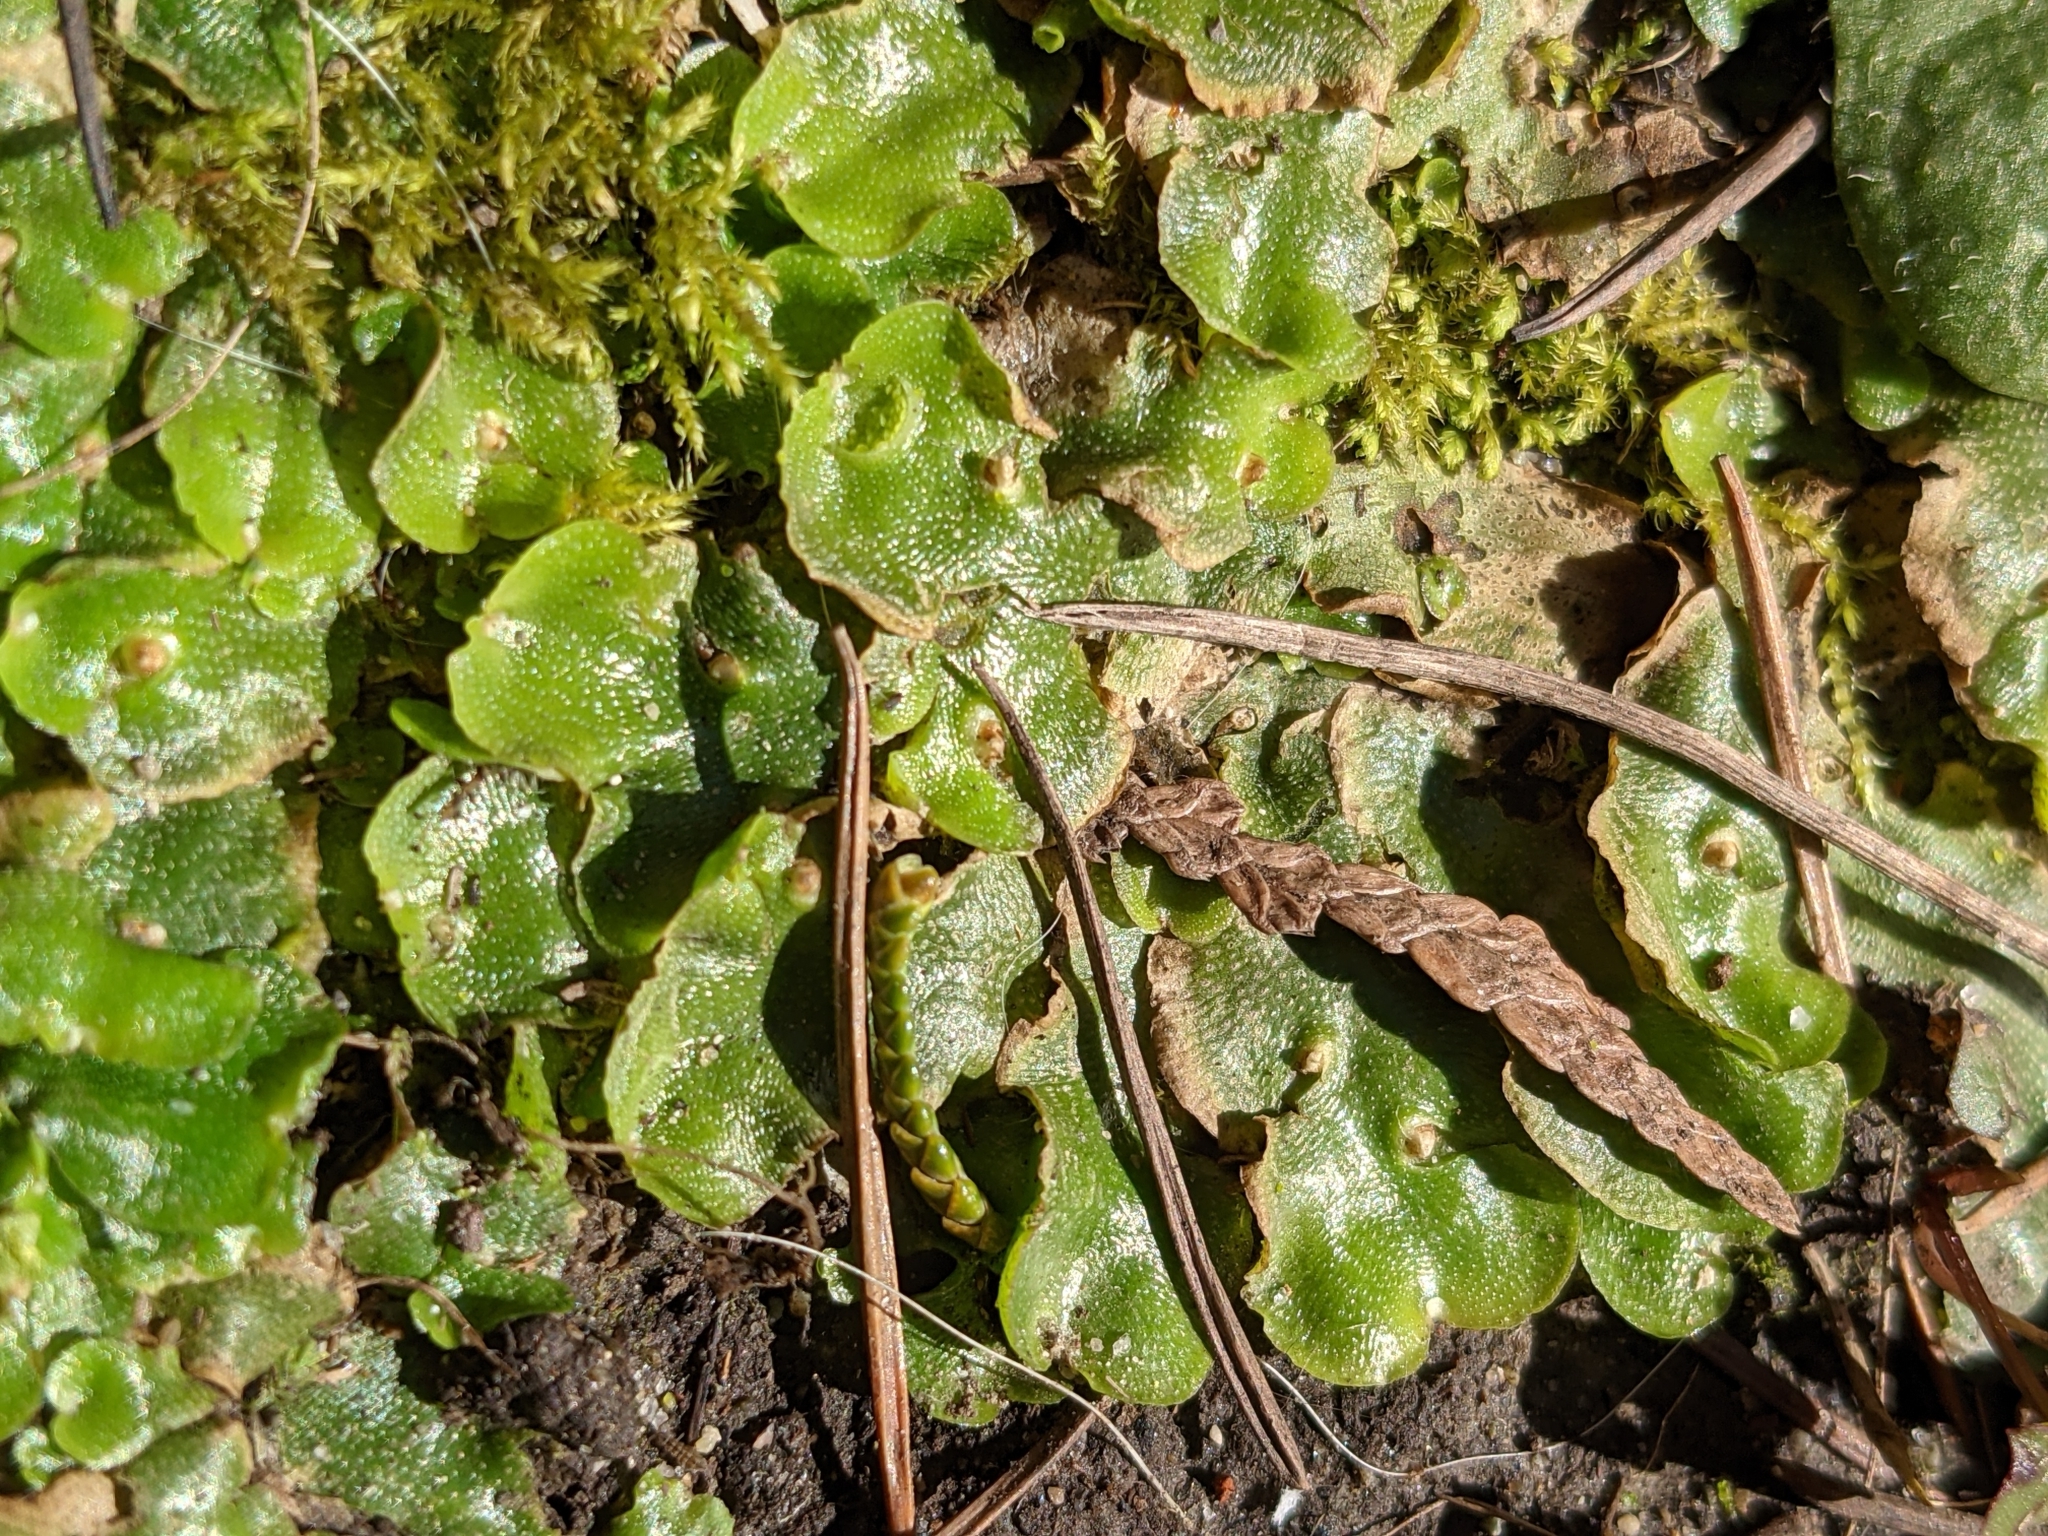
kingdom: Plantae
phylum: Marchantiophyta
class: Marchantiopsida
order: Lunulariales
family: Lunulariaceae
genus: Lunularia
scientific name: Lunularia cruciata
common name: Crescent-cup liverwort
